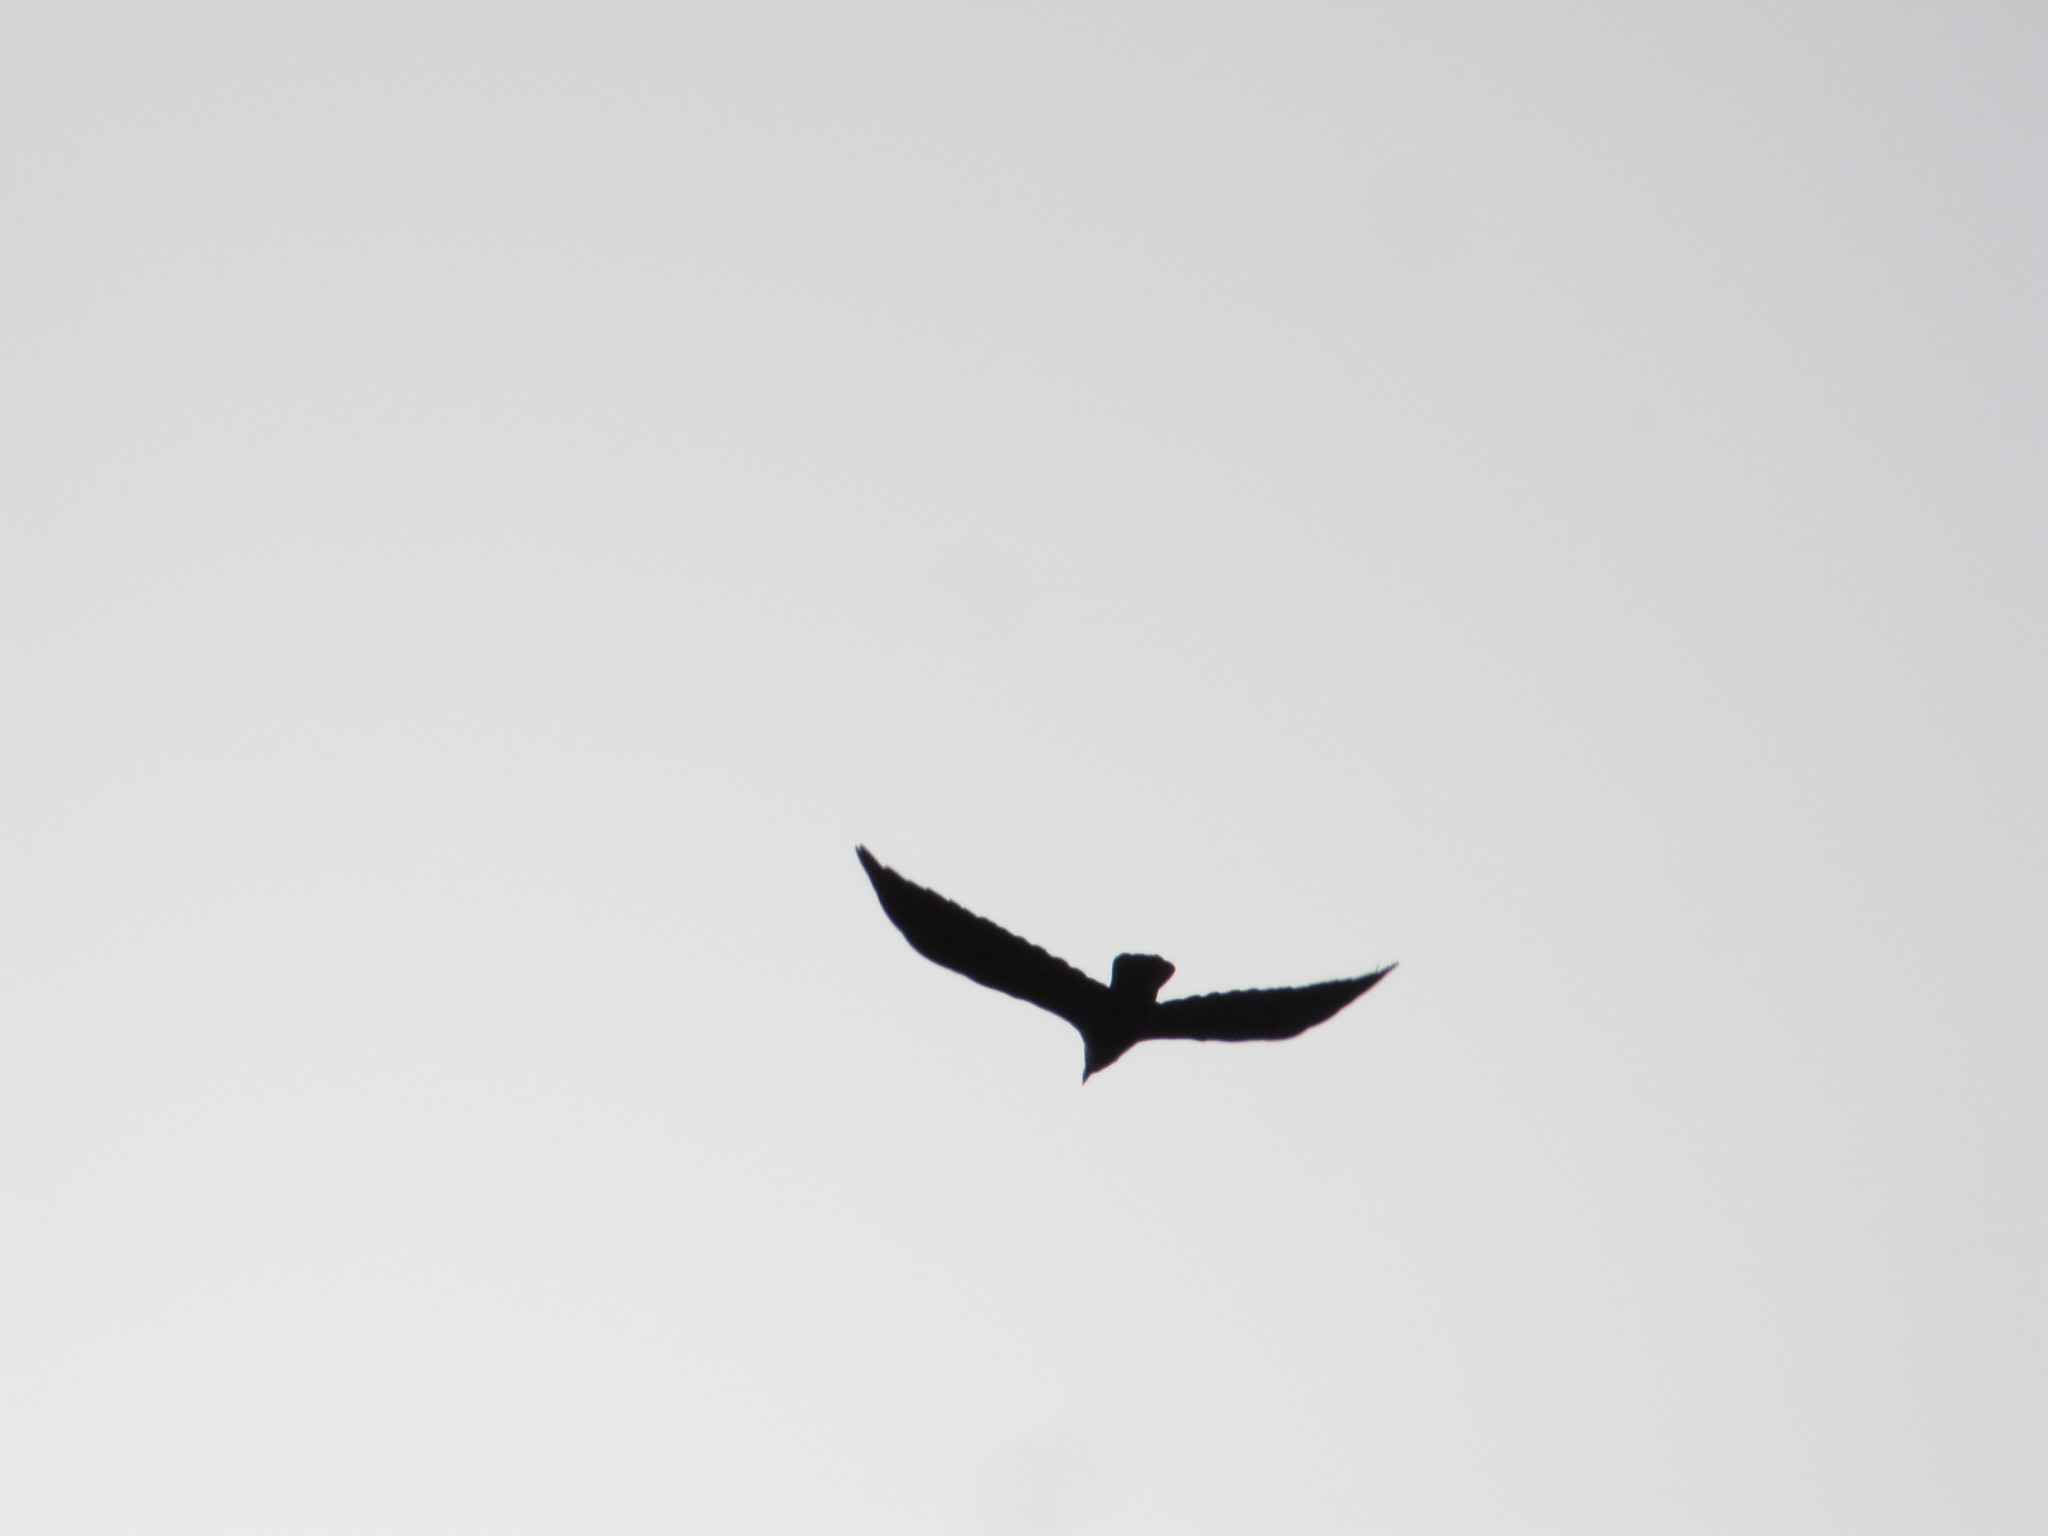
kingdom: Animalia
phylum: Chordata
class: Aves
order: Passeriformes
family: Corvidae
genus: Corvus
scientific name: Corvus brachyrhynchos
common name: American crow
